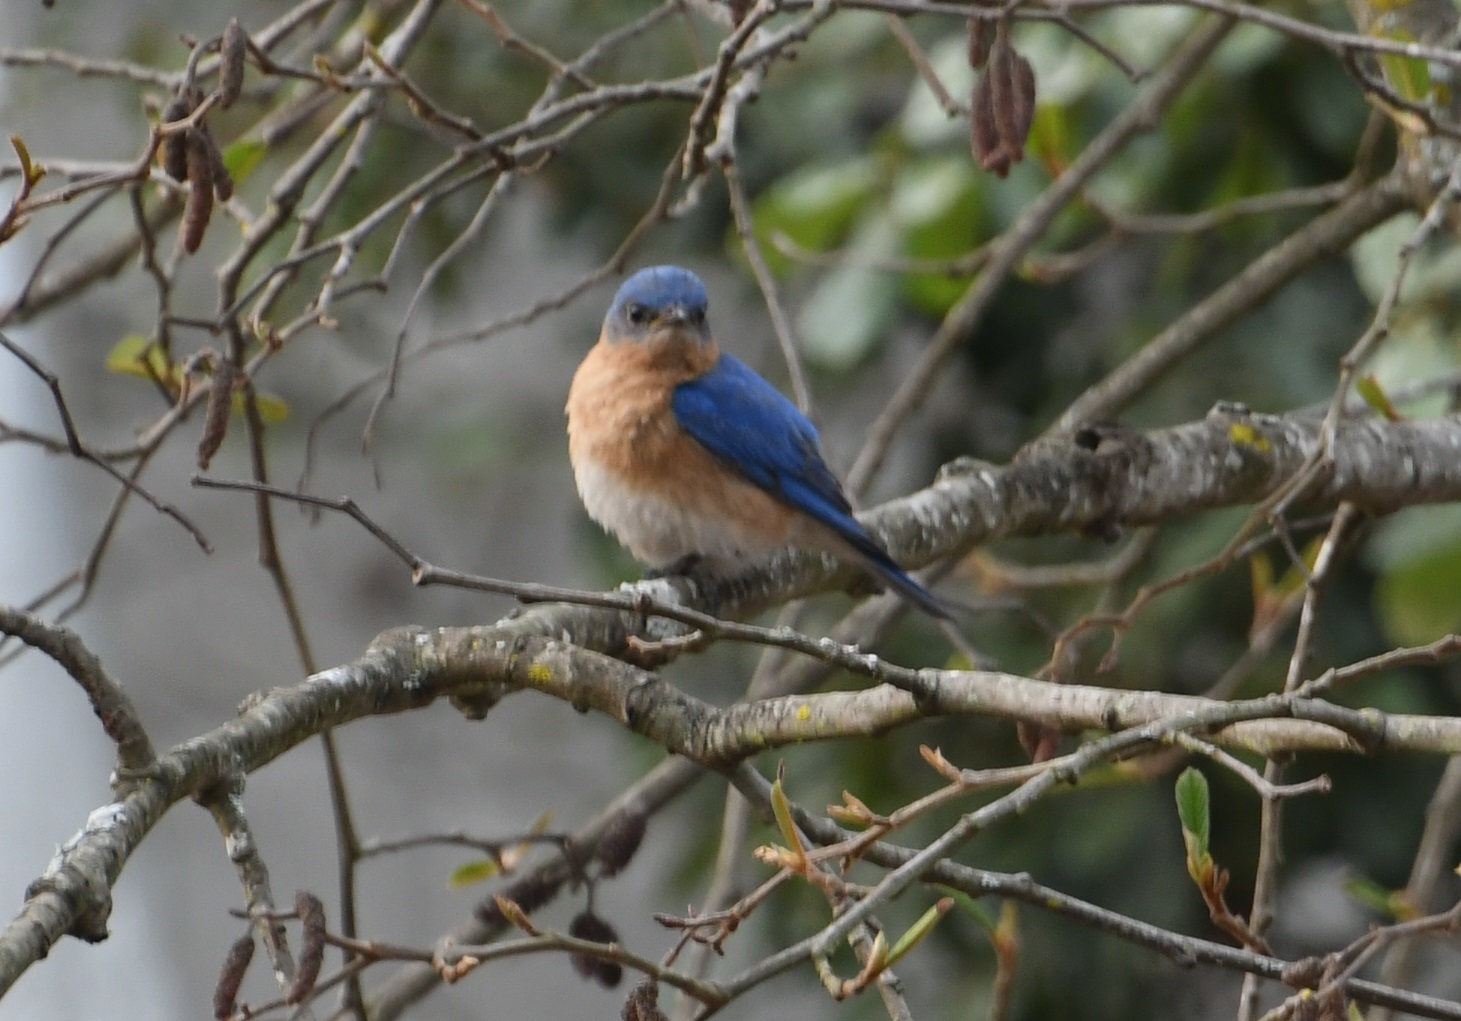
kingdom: Animalia
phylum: Chordata
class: Aves
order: Passeriformes
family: Turdidae
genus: Sialia
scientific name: Sialia sialis
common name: Eastern bluebird
